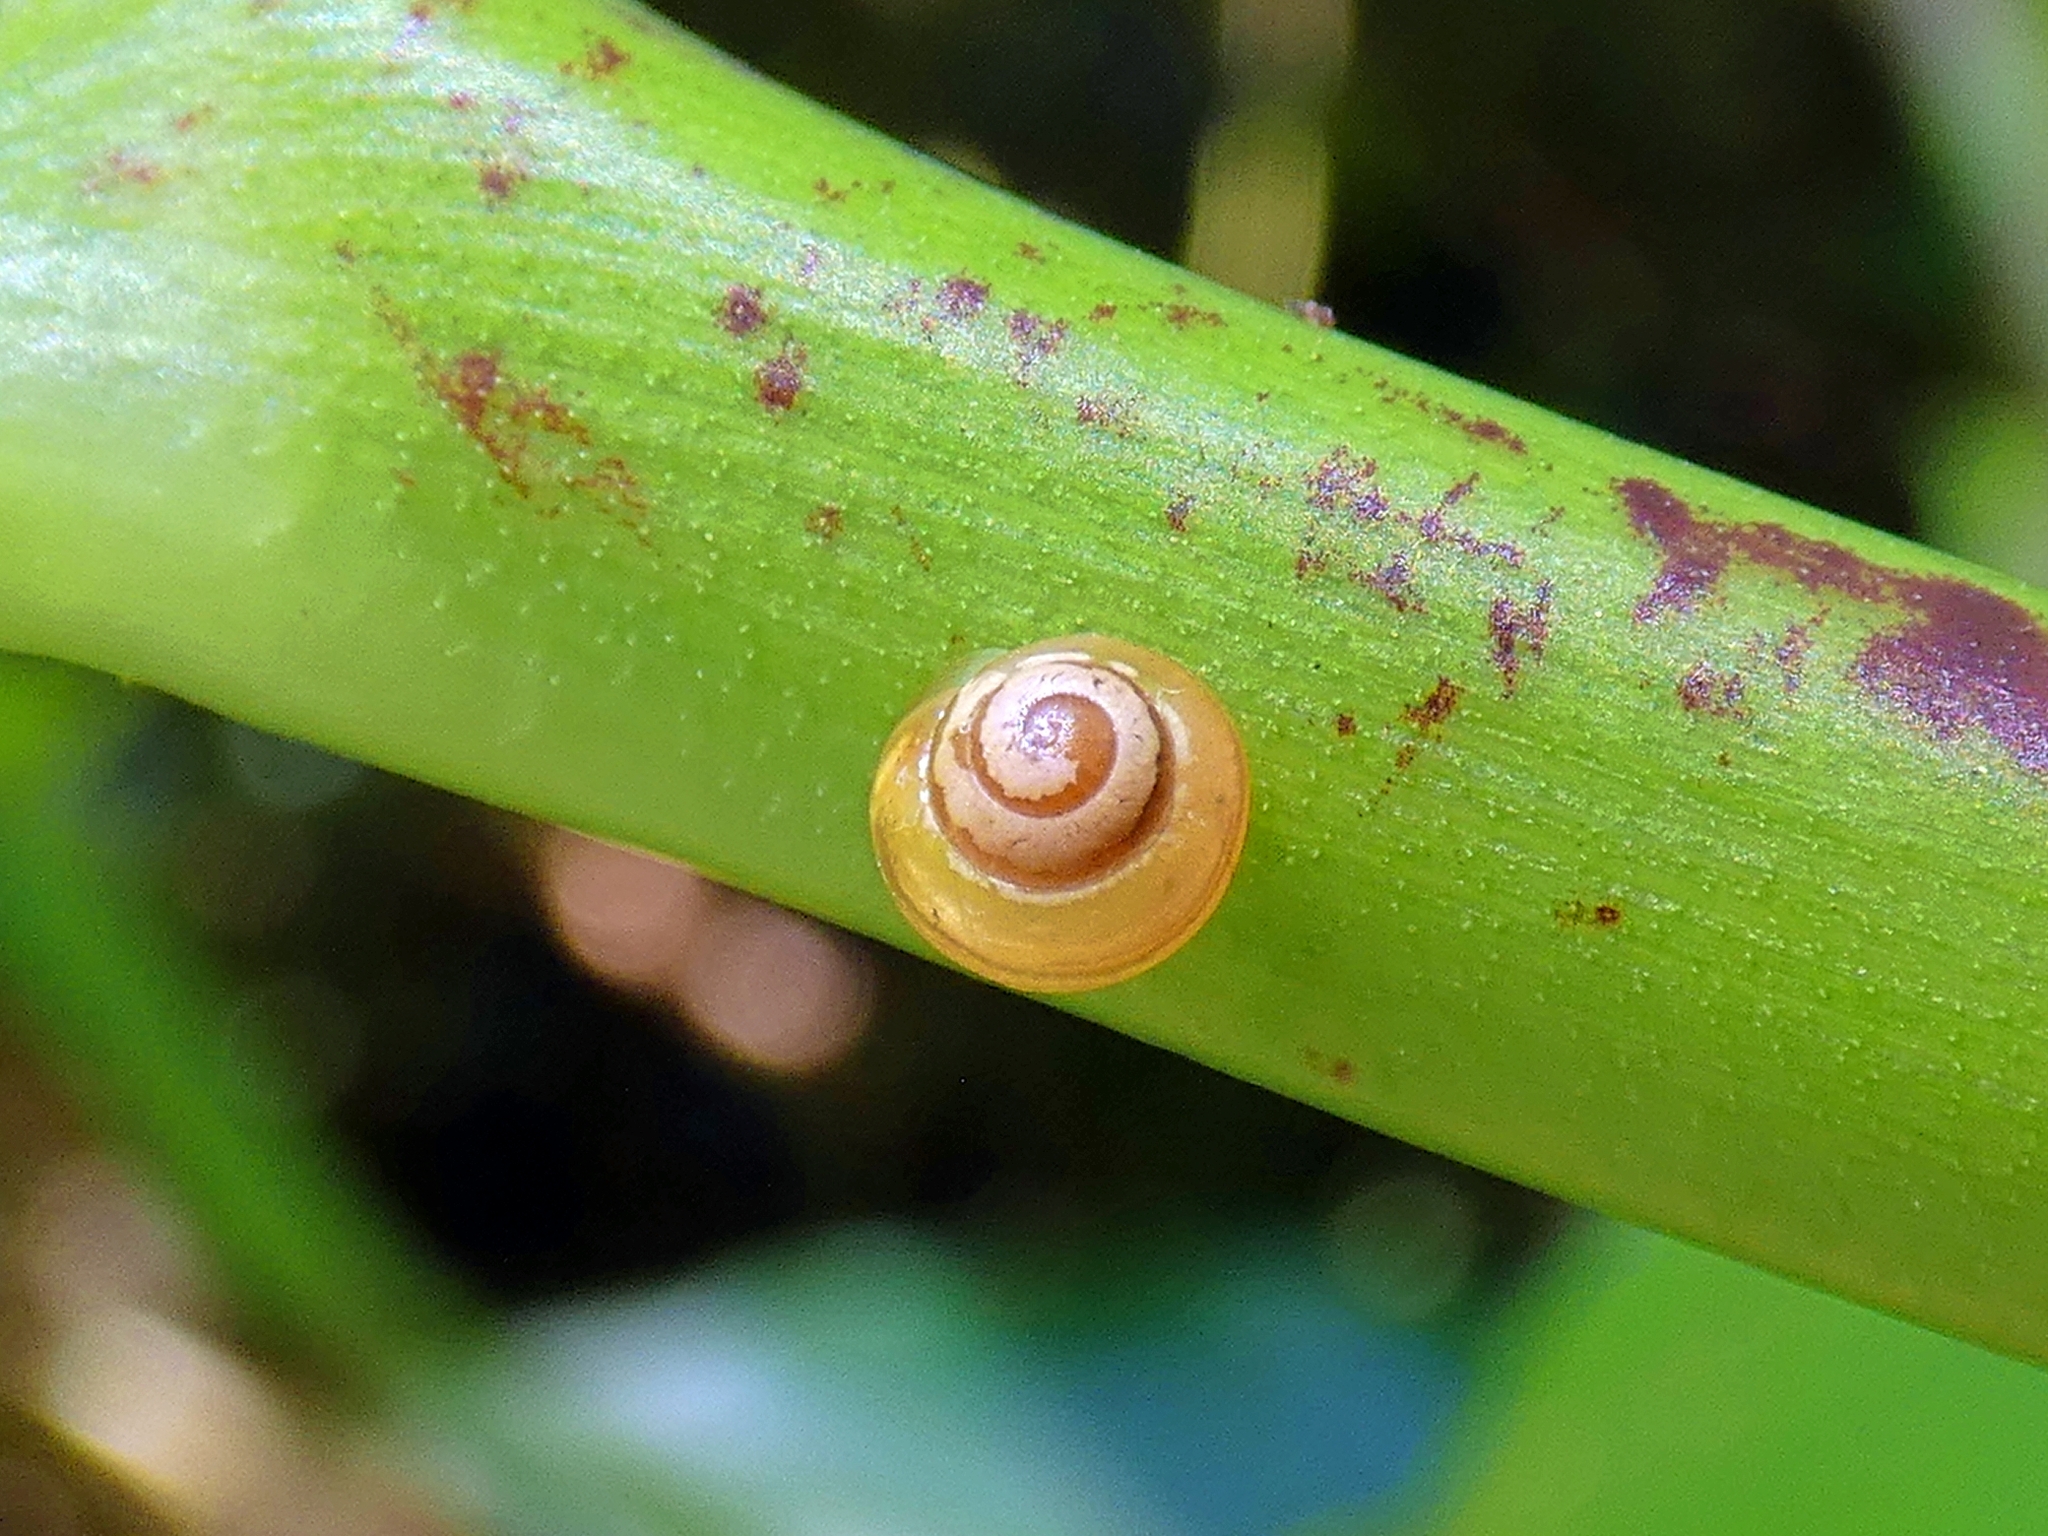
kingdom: Animalia
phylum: Mollusca
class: Gastropoda
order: Stylommatophora
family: Euconulidae
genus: Coneuplecta
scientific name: Coneuplecta pampini
